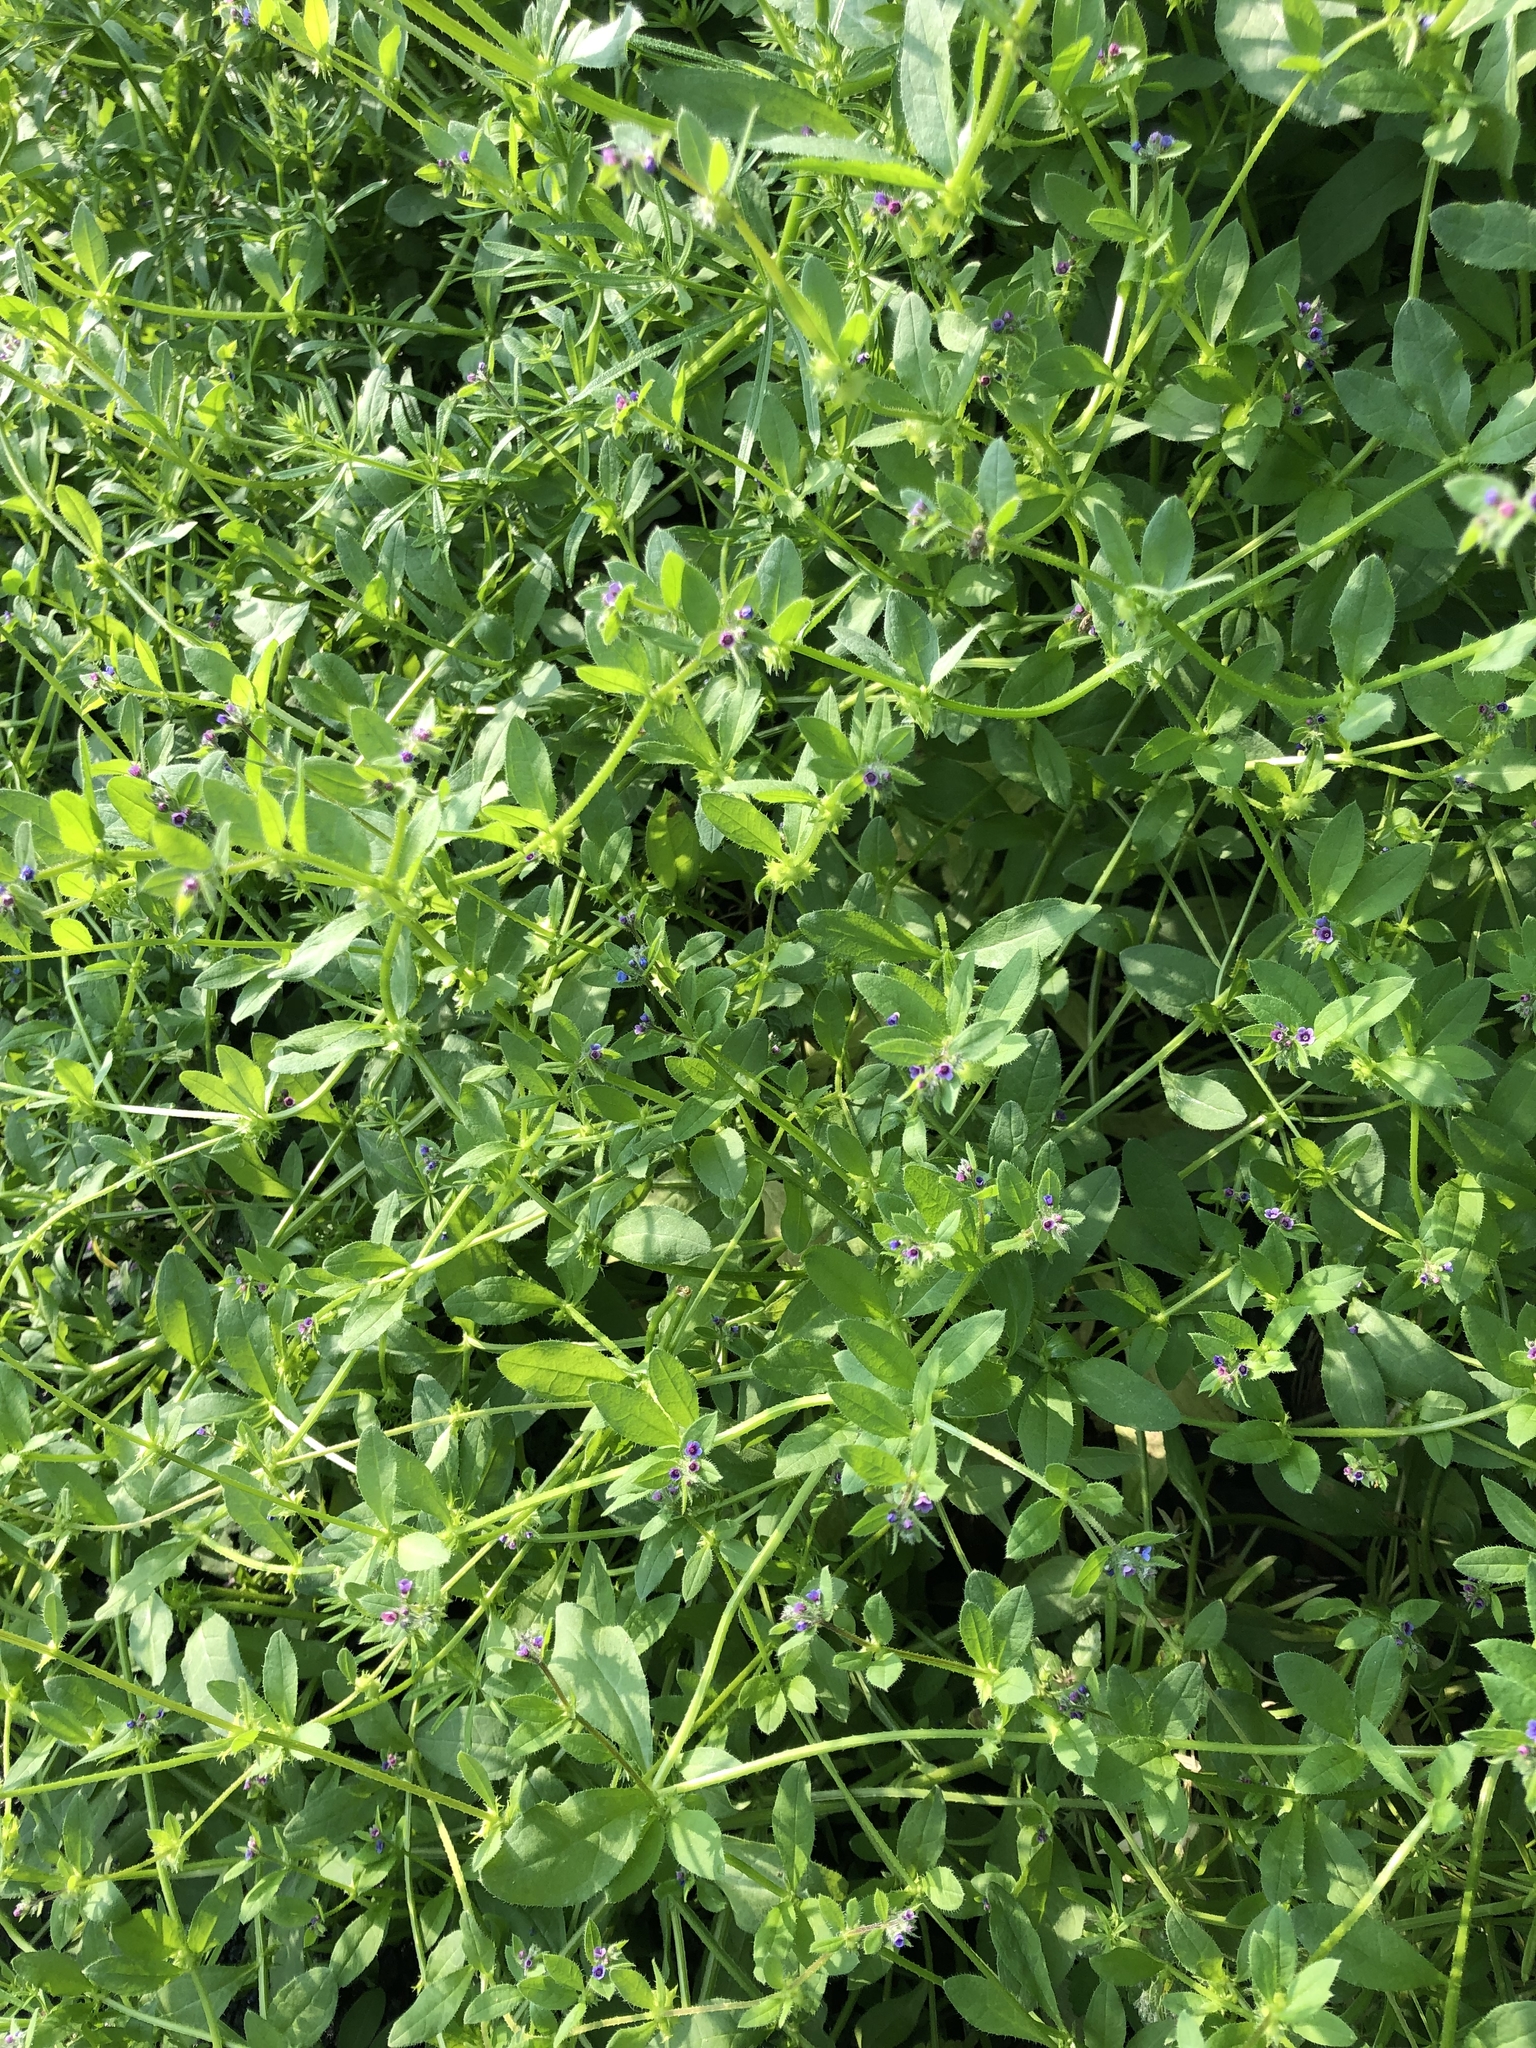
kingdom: Plantae
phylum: Tracheophyta
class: Magnoliopsida
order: Boraginales
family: Boraginaceae
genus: Asperugo
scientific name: Asperugo procumbens
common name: Madwort
